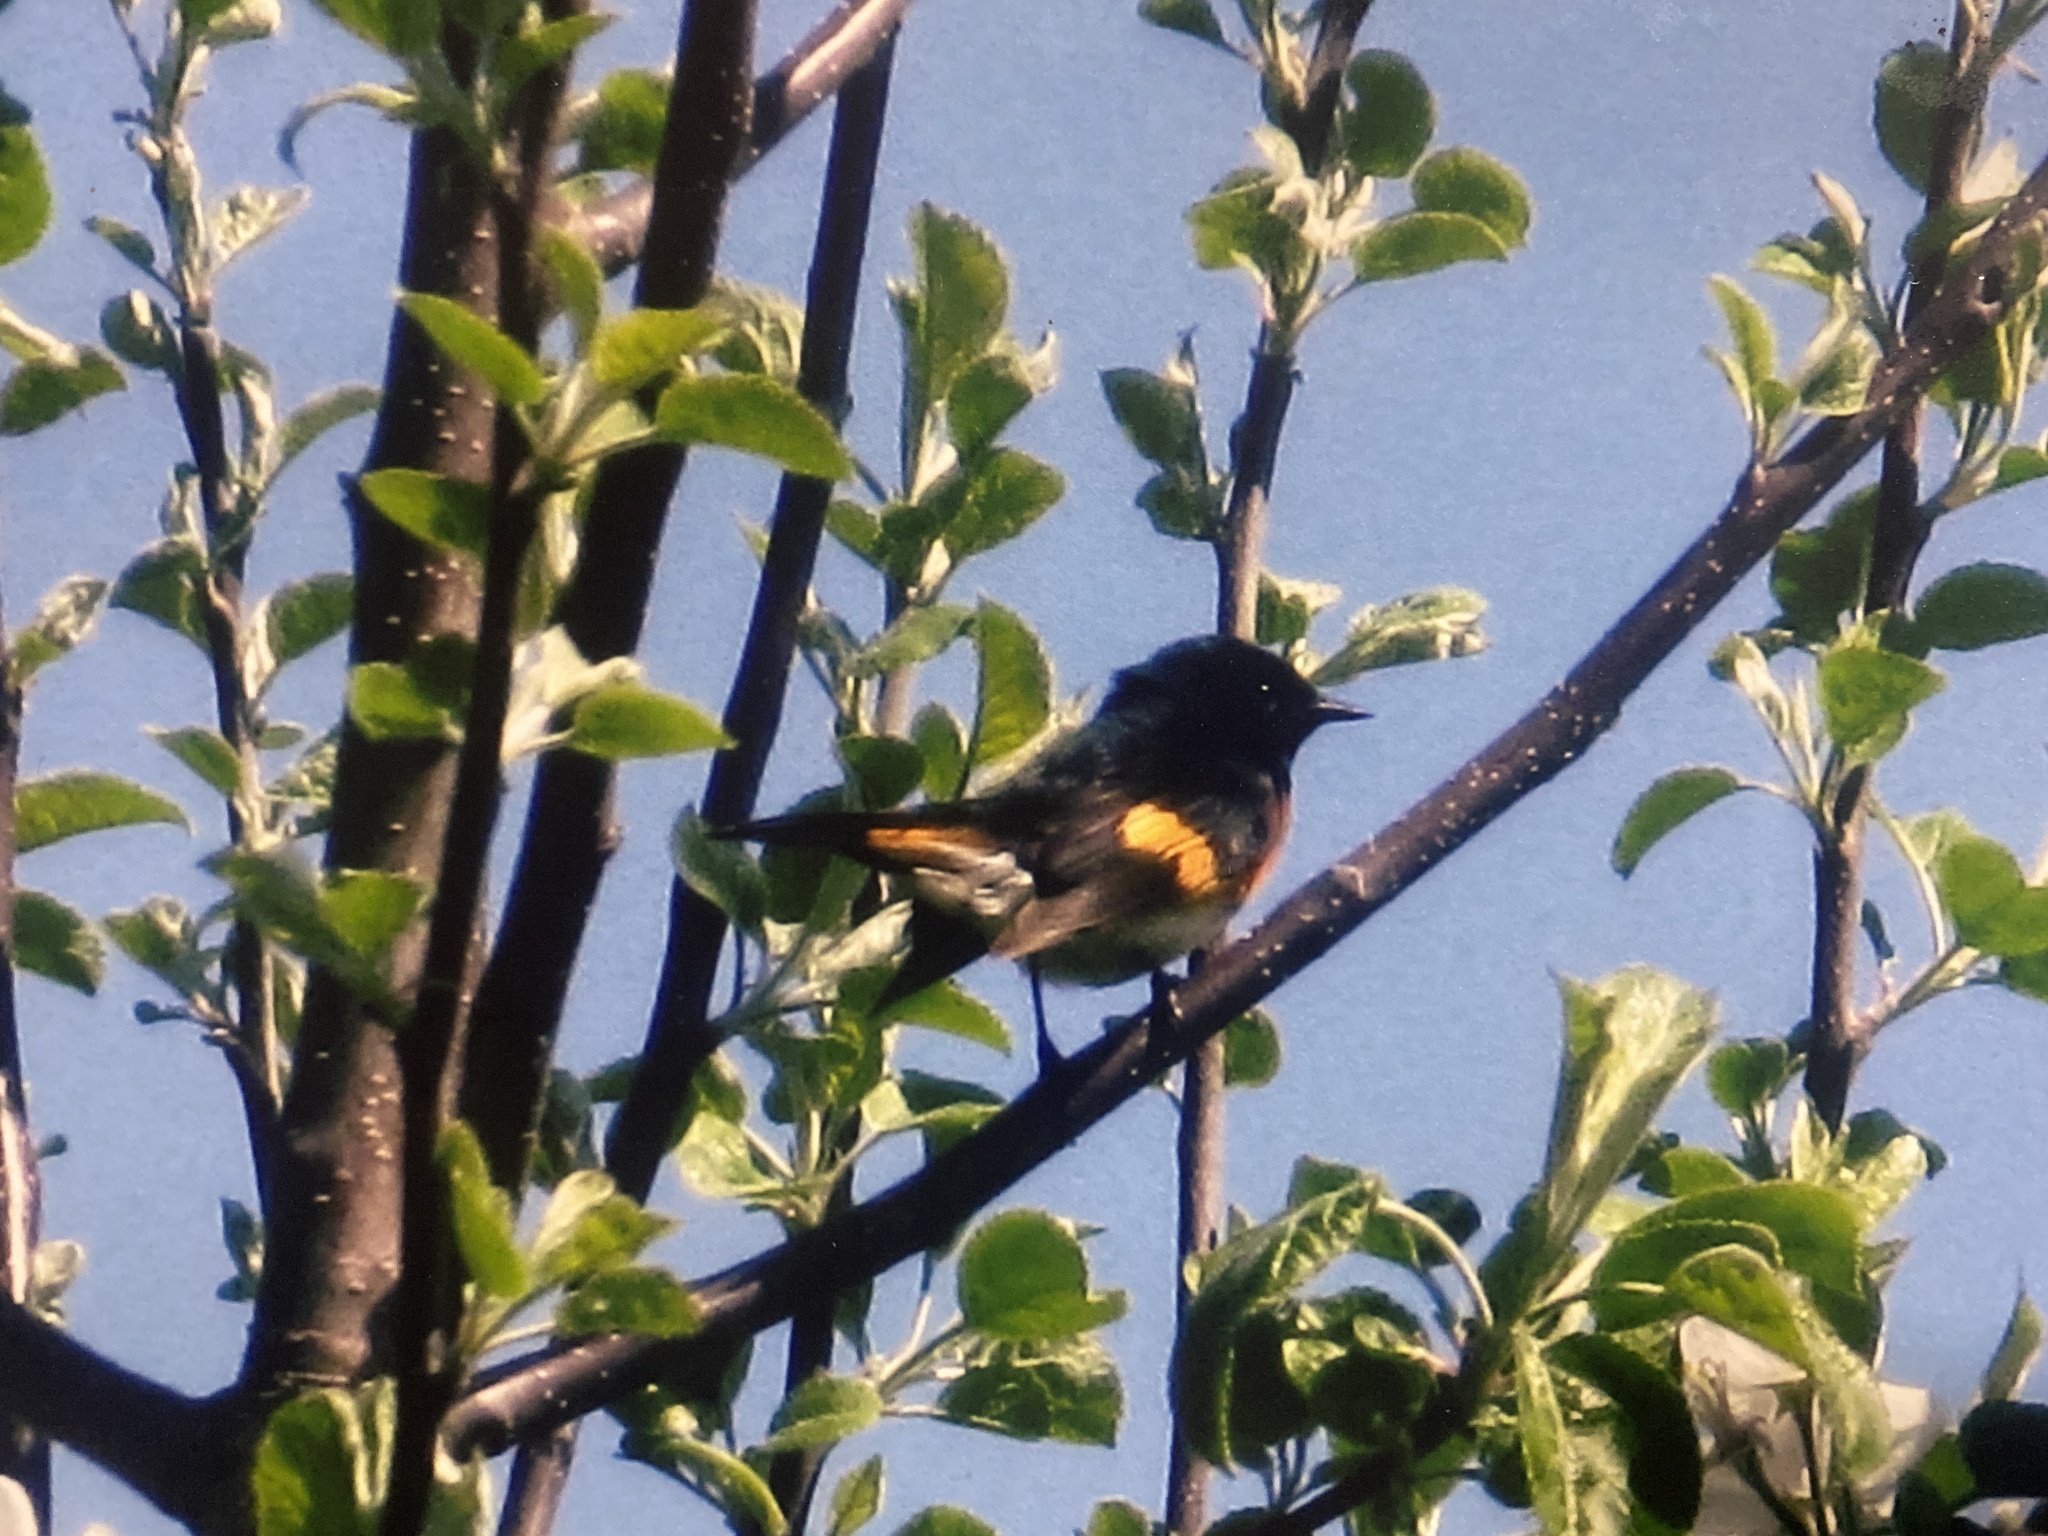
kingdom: Animalia
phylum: Chordata
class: Aves
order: Passeriformes
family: Parulidae
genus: Setophaga
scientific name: Setophaga ruticilla
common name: American redstart
